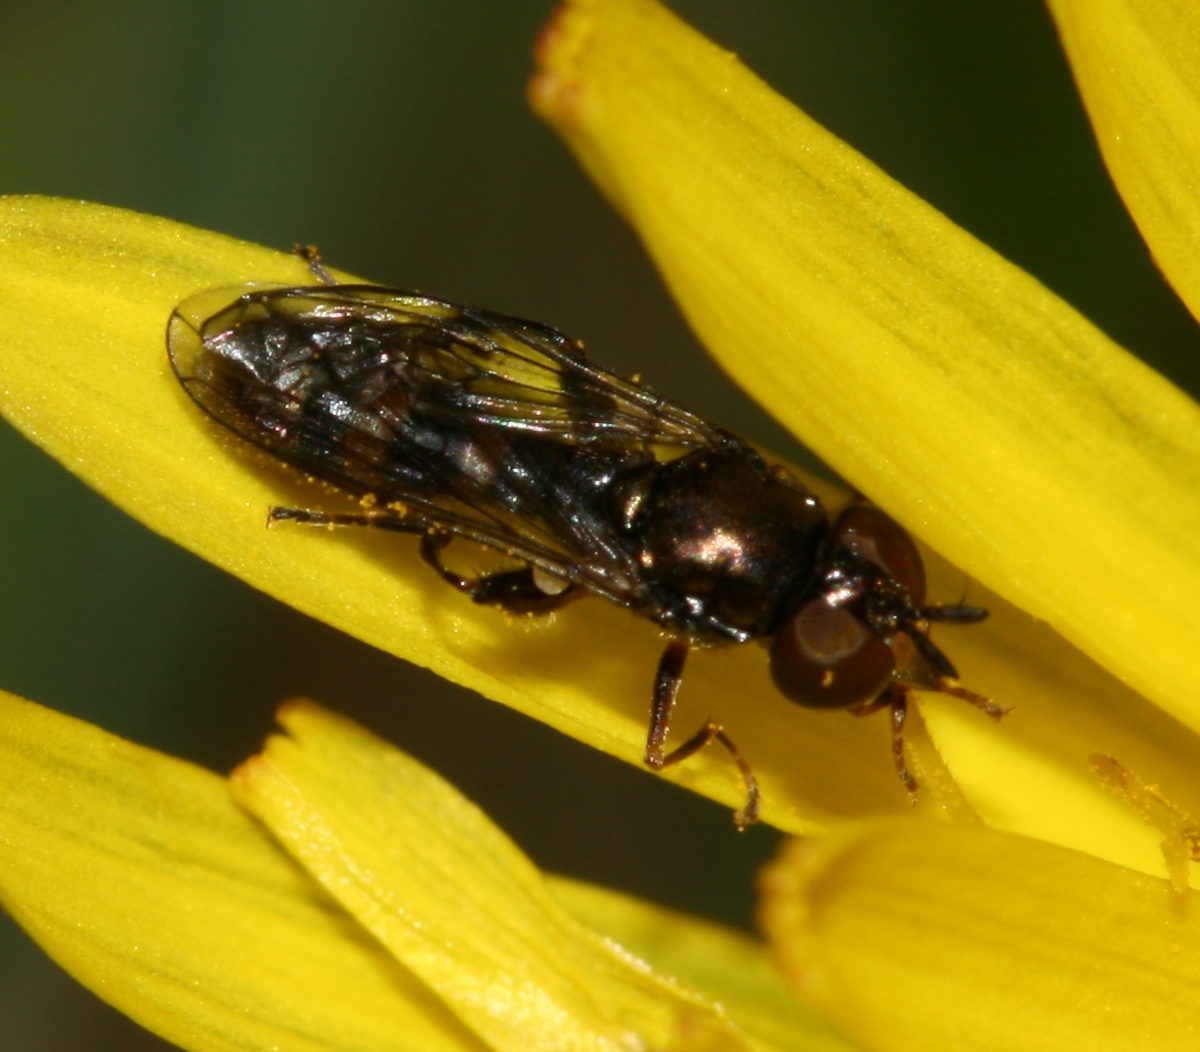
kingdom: Animalia
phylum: Arthropoda
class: Insecta
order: Diptera
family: Syrphidae
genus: Neoascia
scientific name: Neoascia
